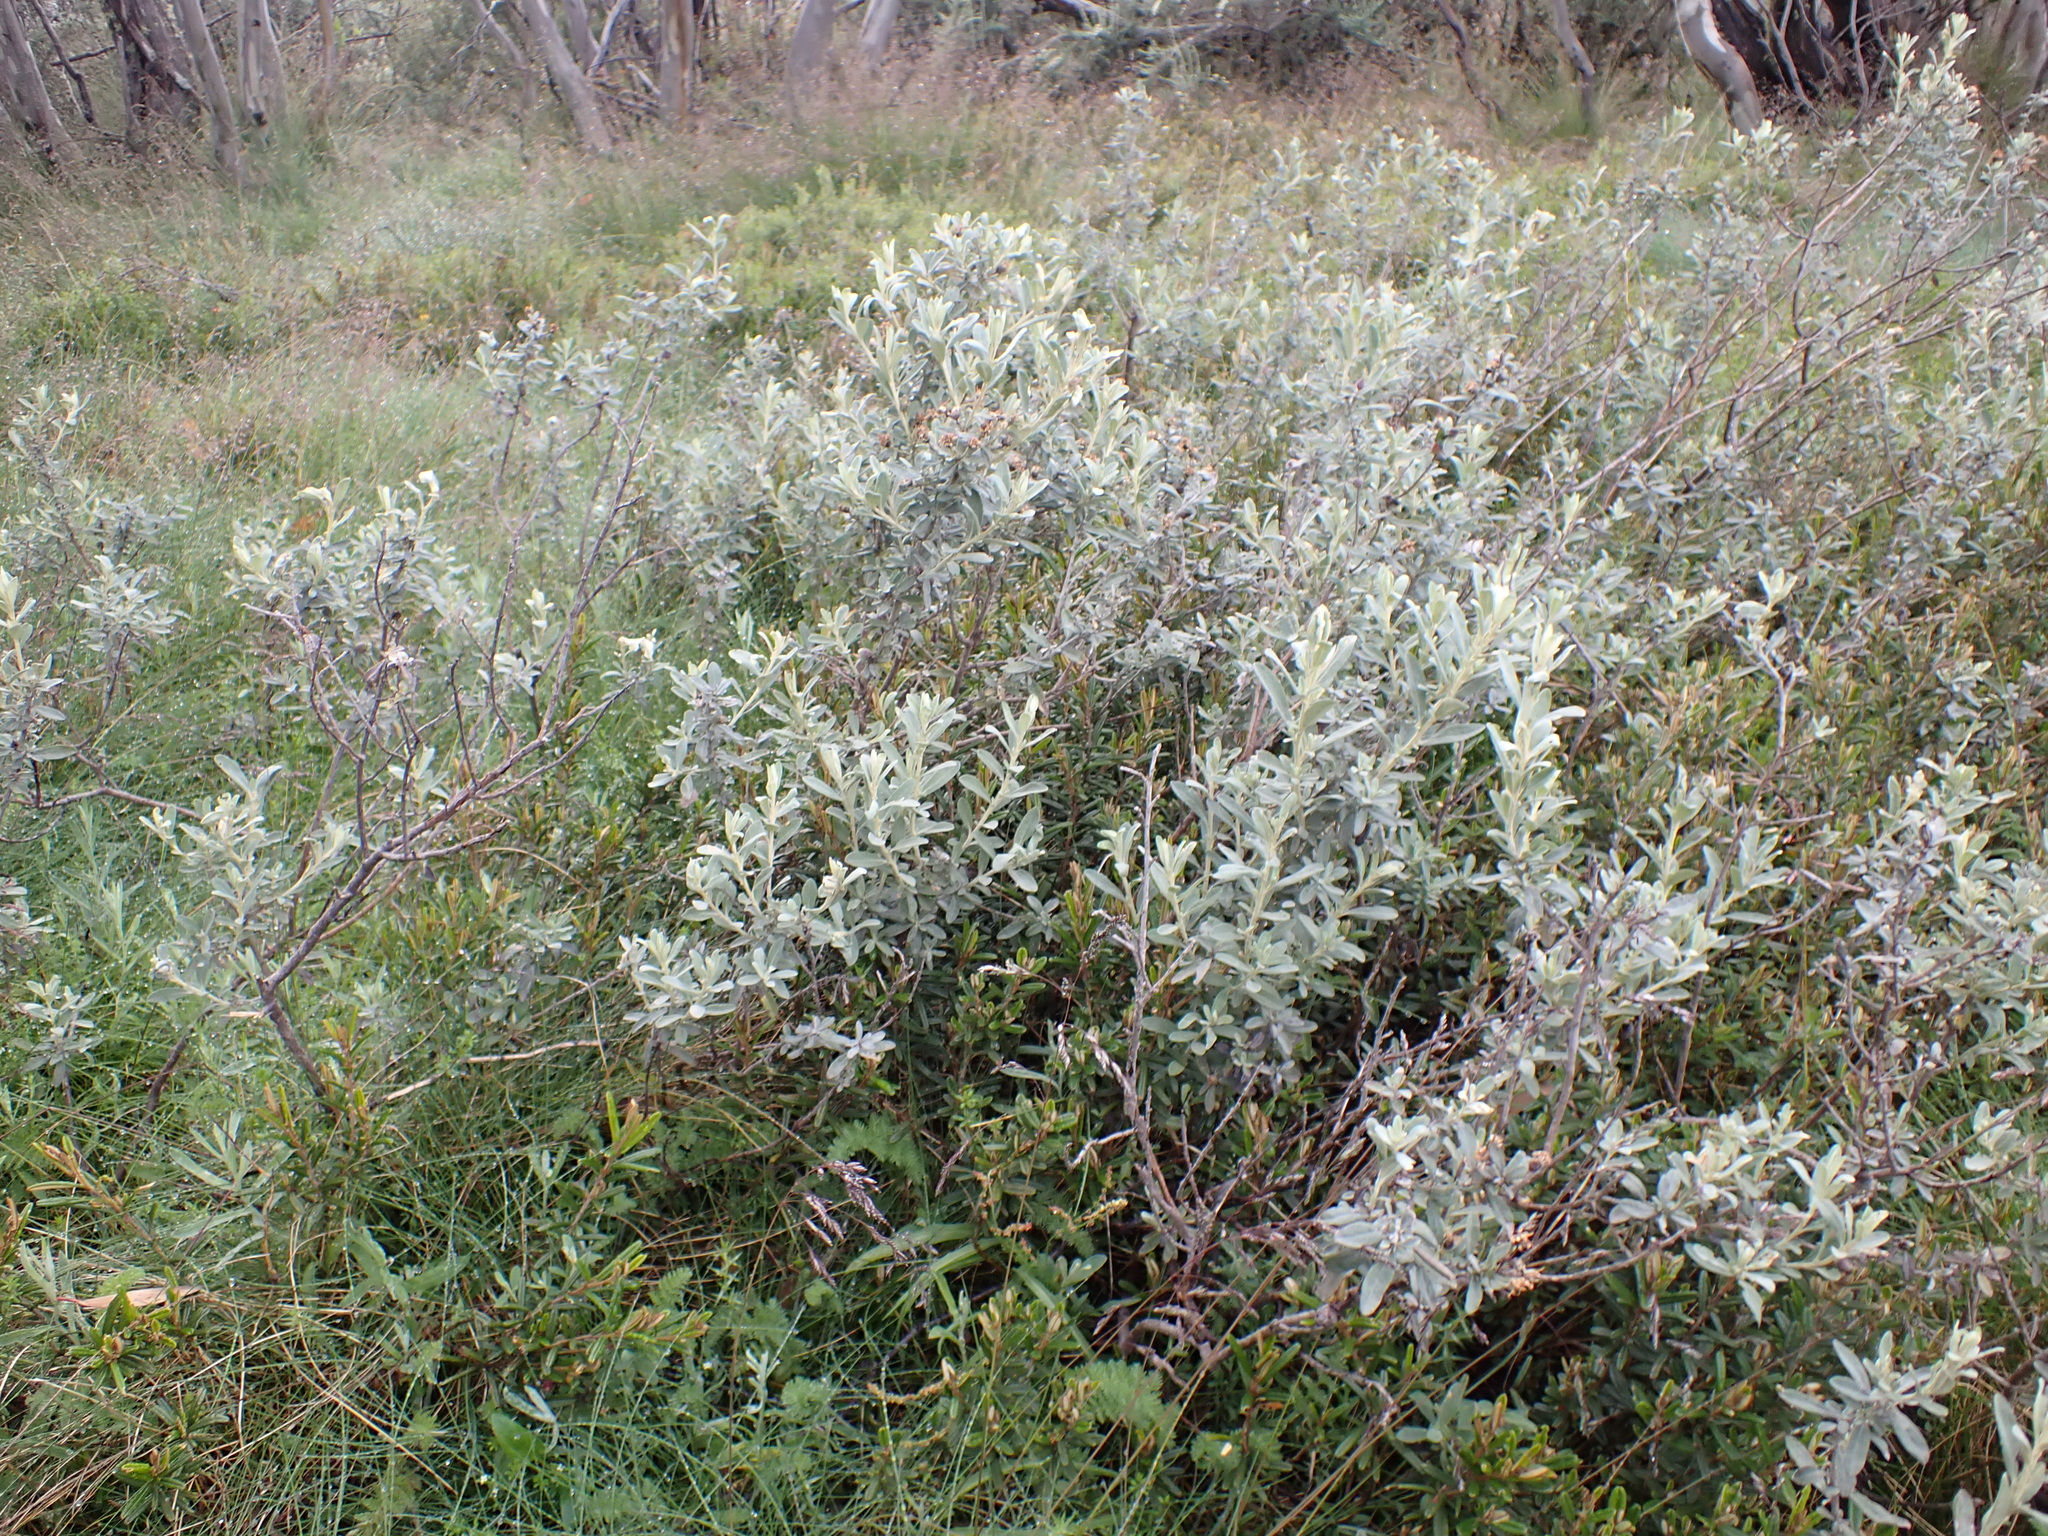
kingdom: Plantae
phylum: Tracheophyta
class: Magnoliopsida
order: Asterales
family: Asteraceae
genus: Olearia
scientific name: Olearia phlogopappa
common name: Alpine daisybush
